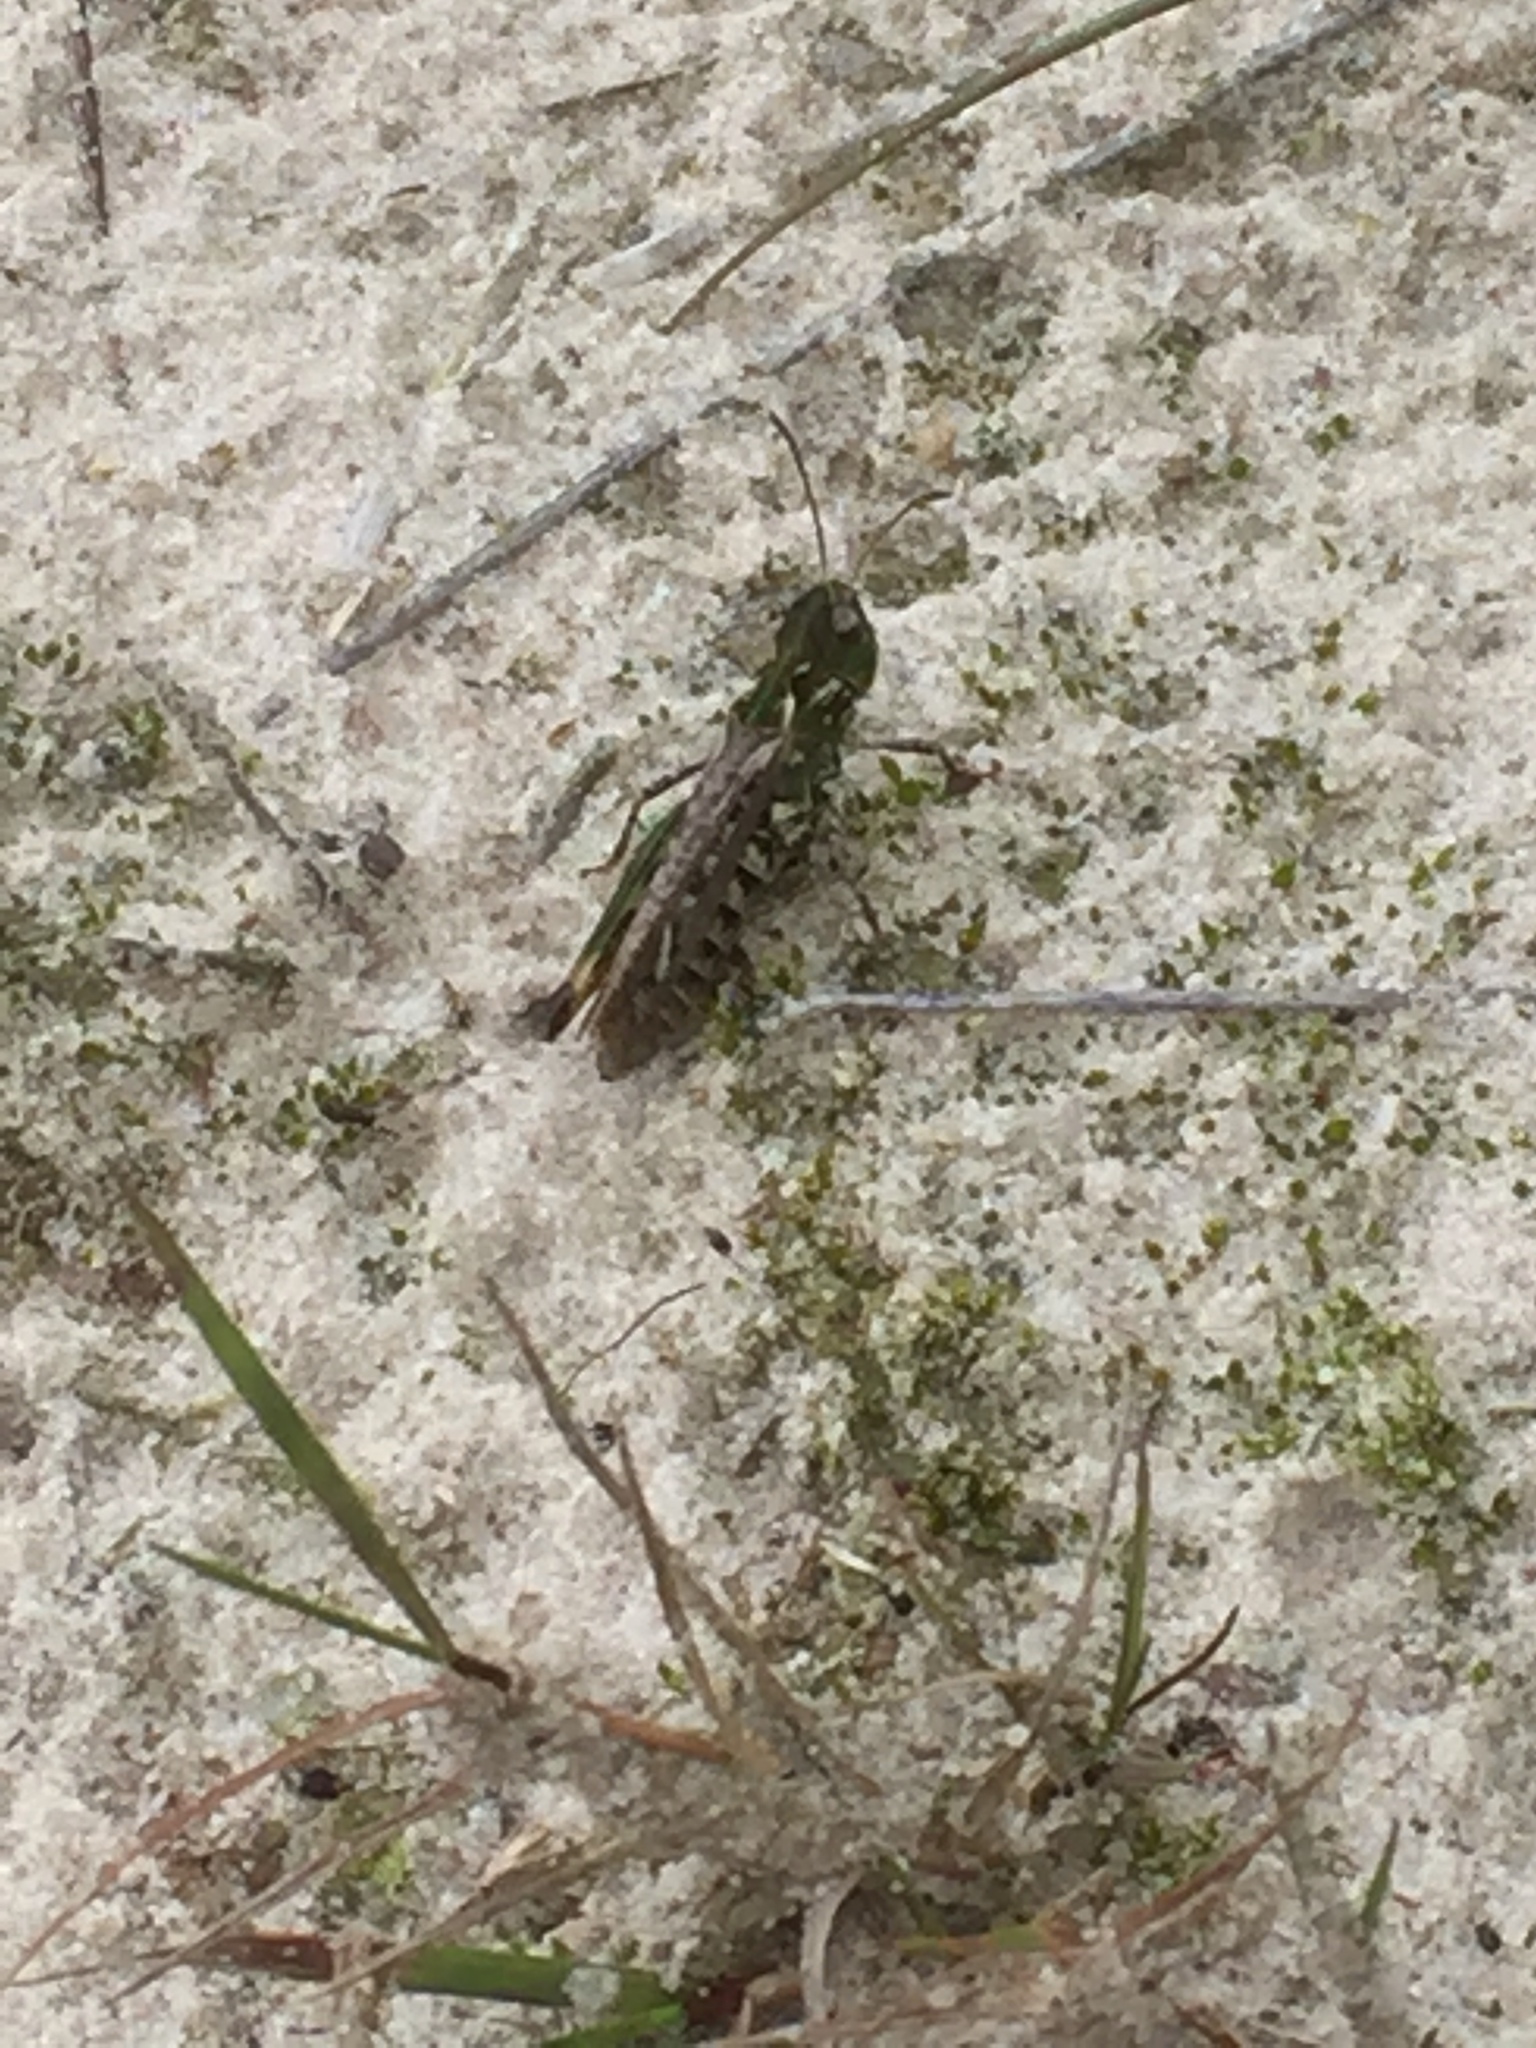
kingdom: Animalia
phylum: Arthropoda
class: Insecta
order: Orthoptera
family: Acrididae
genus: Myrmeleotettix
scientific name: Myrmeleotettix maculatus
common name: Mottled grasshopper
